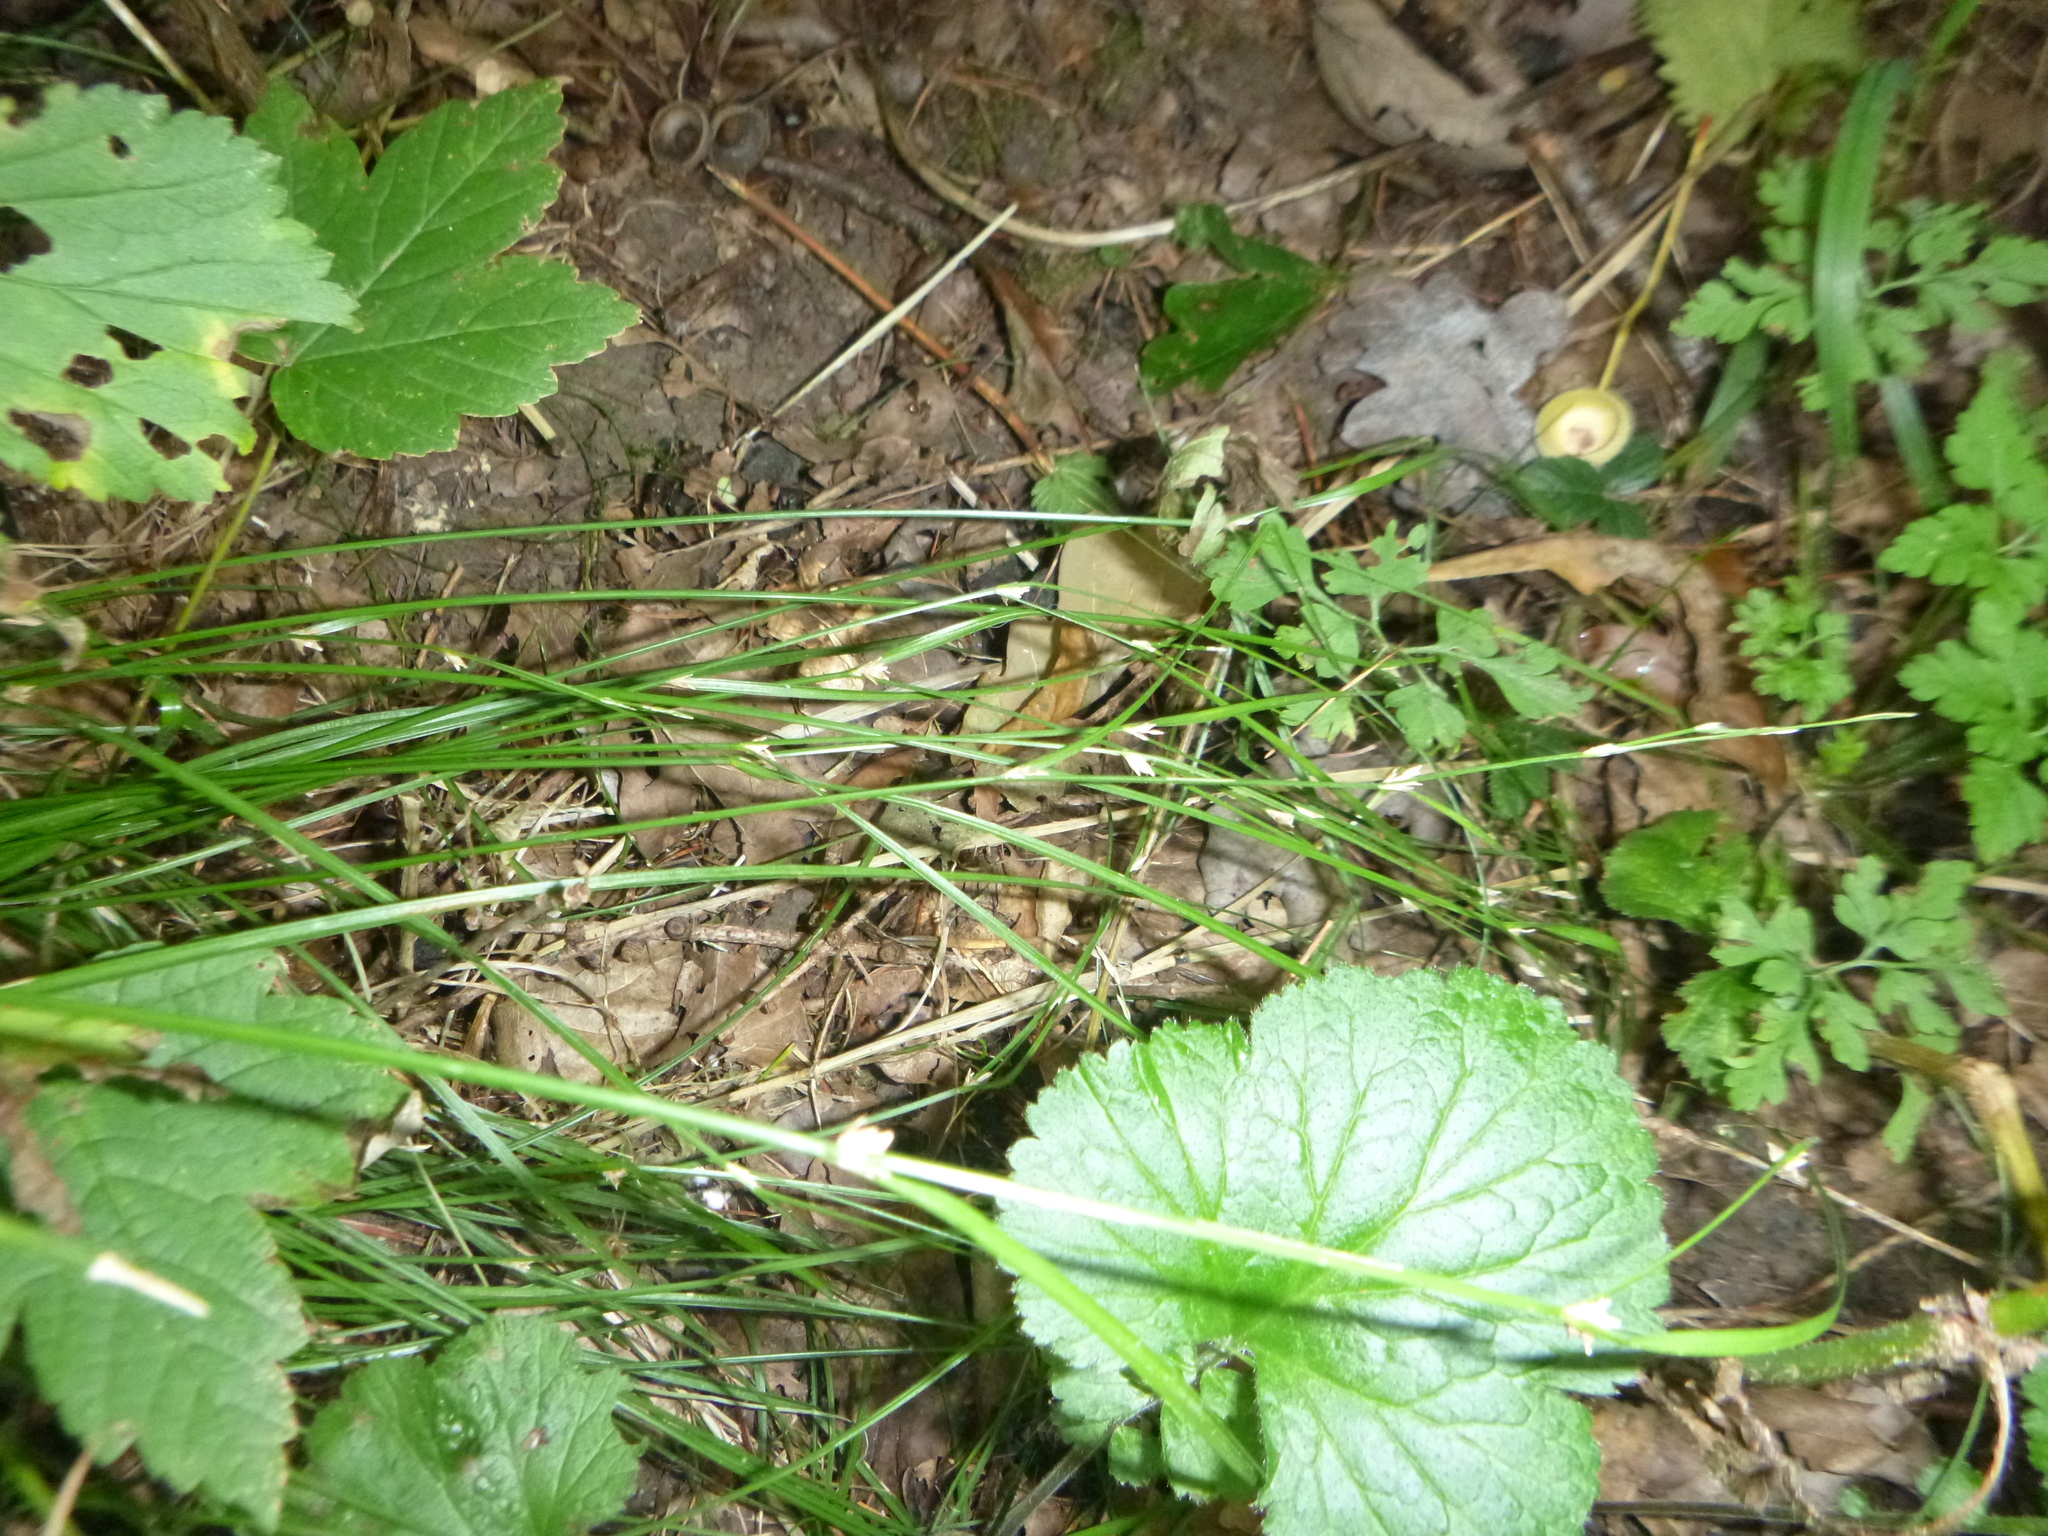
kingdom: Plantae
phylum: Tracheophyta
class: Liliopsida
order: Poales
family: Cyperaceae
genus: Carex
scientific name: Carex remota
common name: Remote sedge
